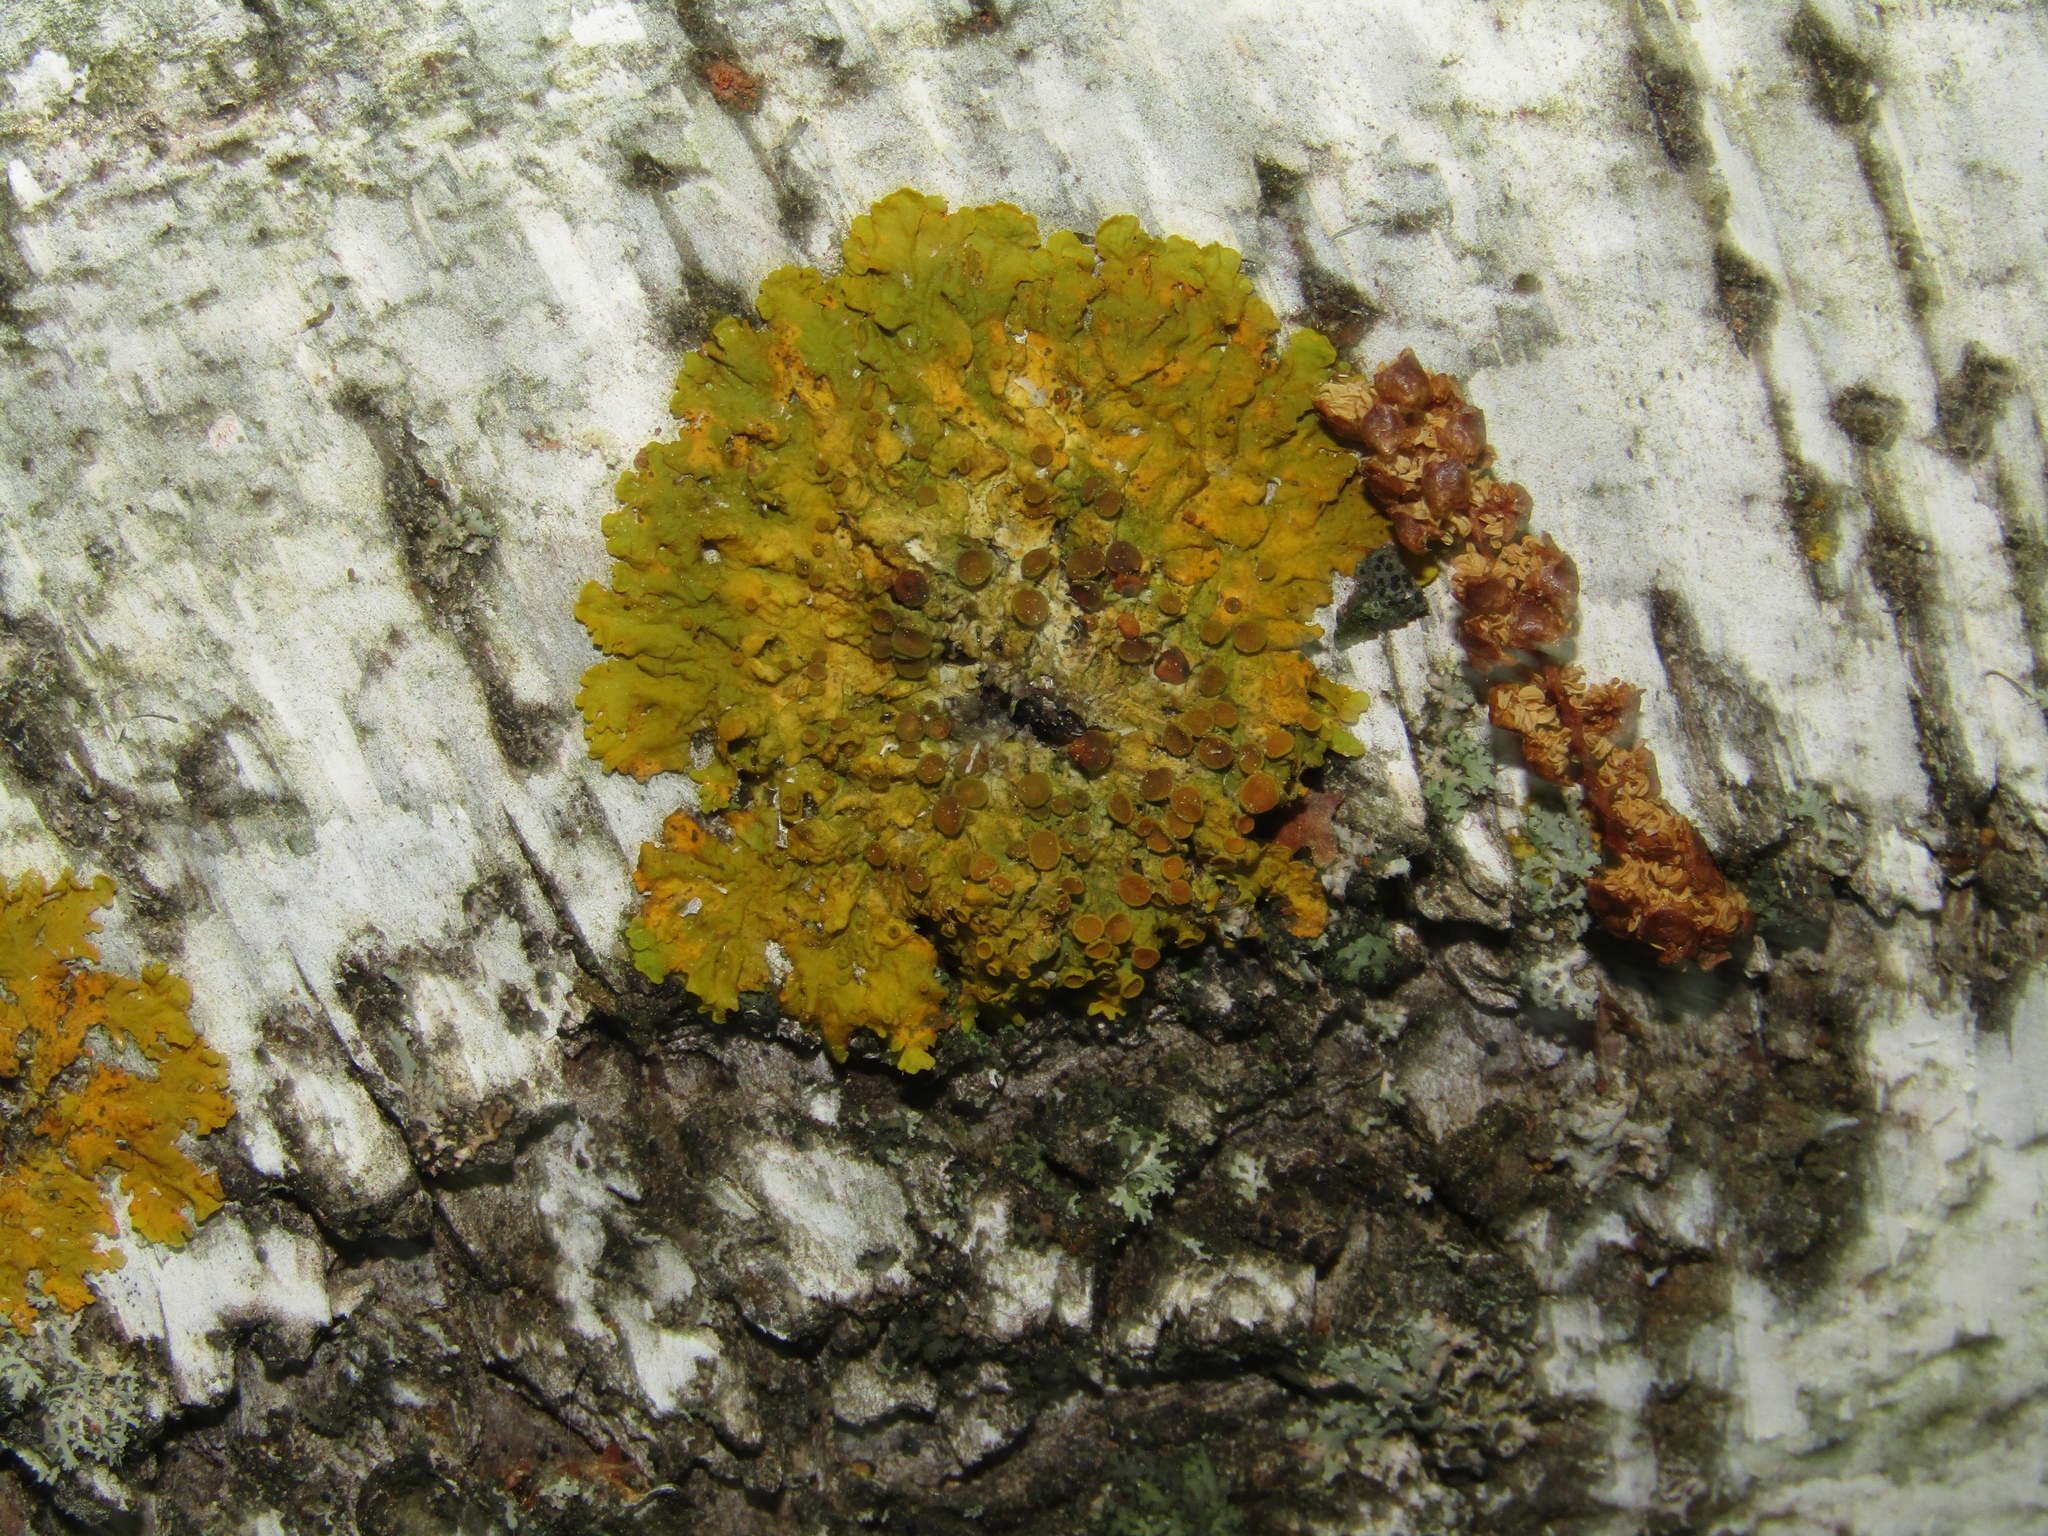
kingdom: Fungi
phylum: Ascomycota
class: Lecanoromycetes
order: Teloschistales
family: Teloschistaceae
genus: Xanthoria
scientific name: Xanthoria parietina
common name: Common orange lichen
